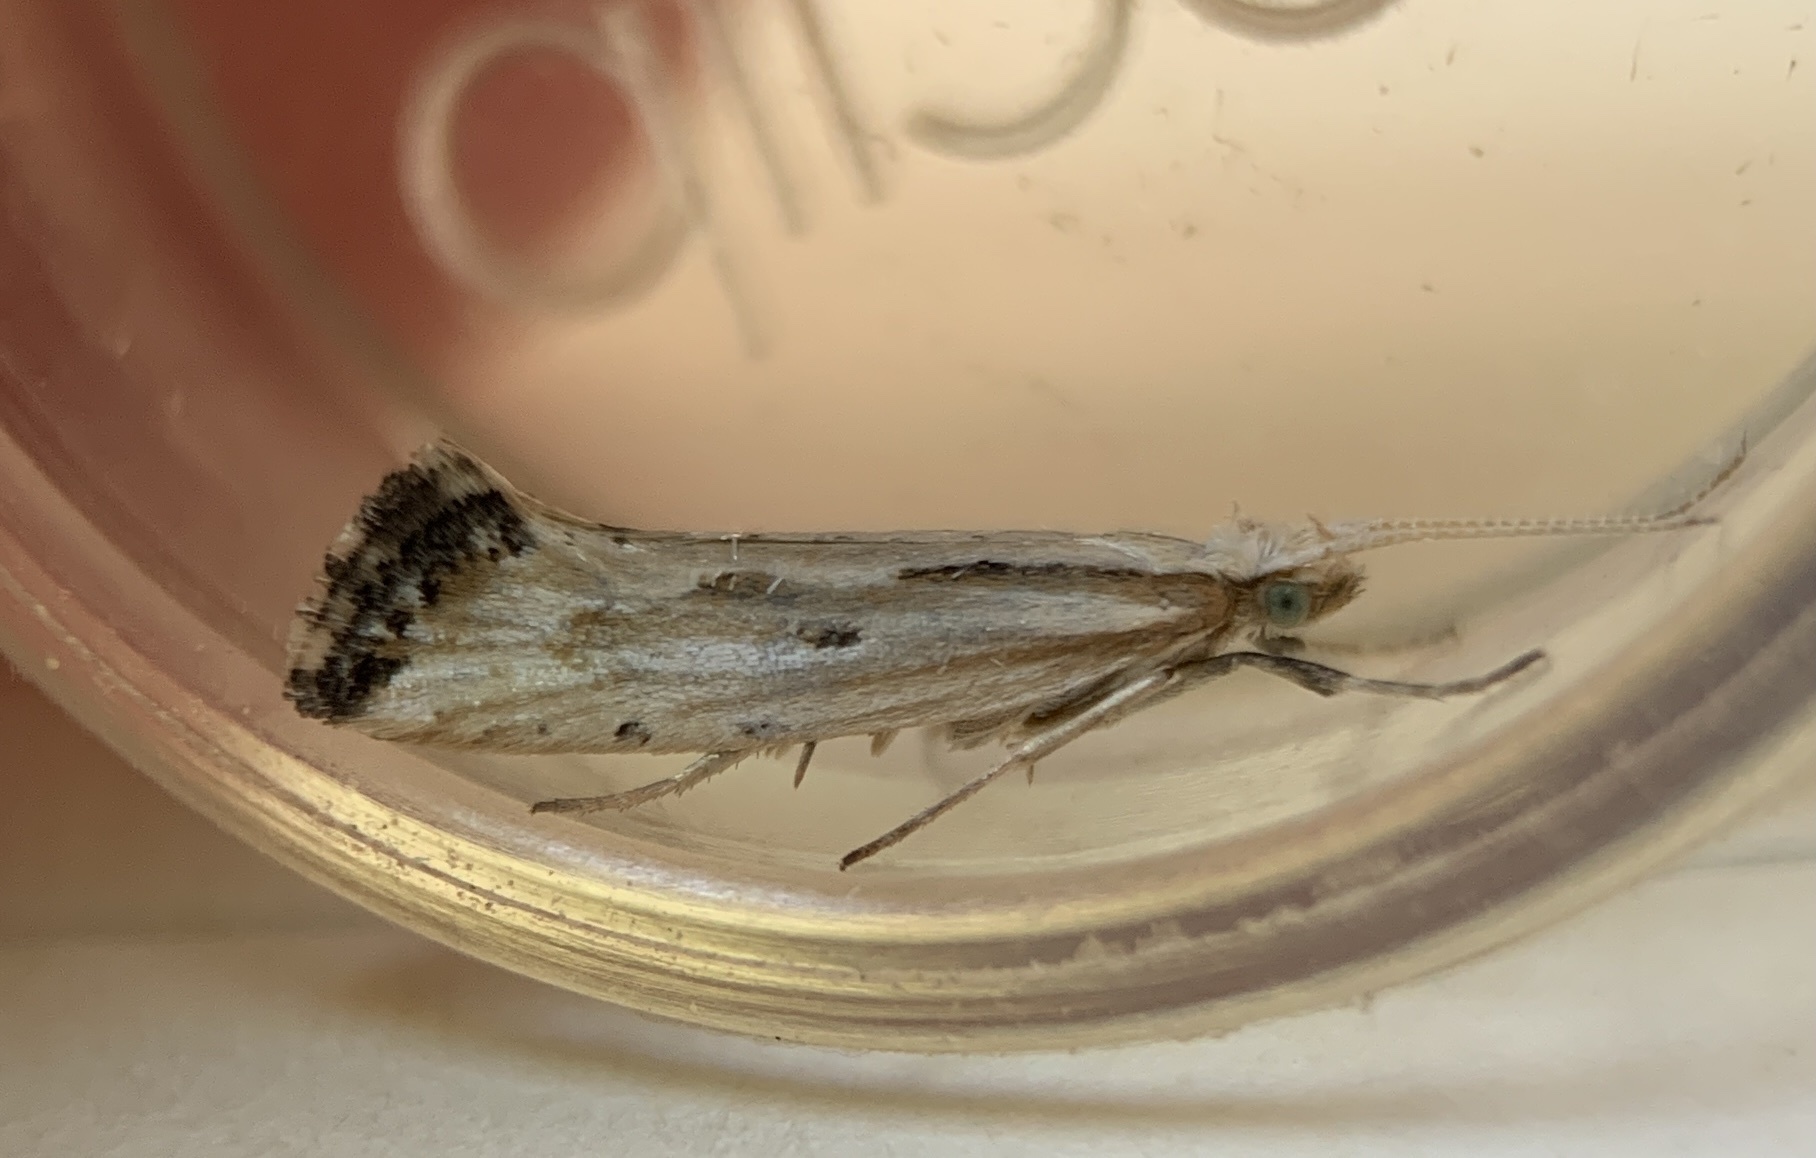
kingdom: Animalia
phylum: Arthropoda
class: Insecta
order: Lepidoptera
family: Plutellidae
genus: Plutella
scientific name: Plutella porrectella
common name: Dame's rocket moth
